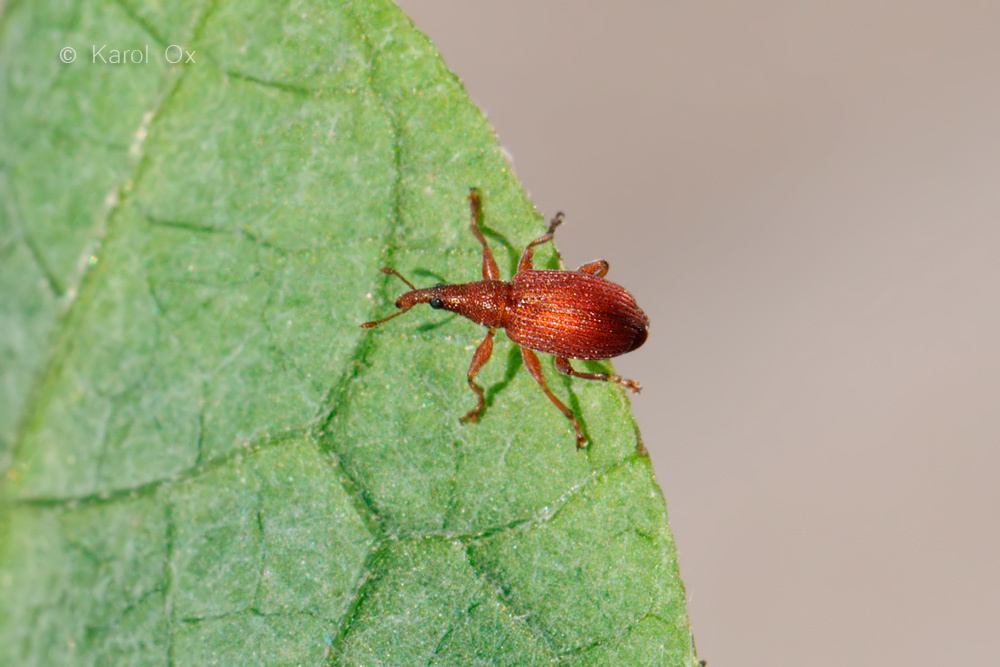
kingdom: Animalia
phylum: Arthropoda
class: Insecta
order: Coleoptera
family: Apionidae
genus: Apion
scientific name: Apion frumentarium
